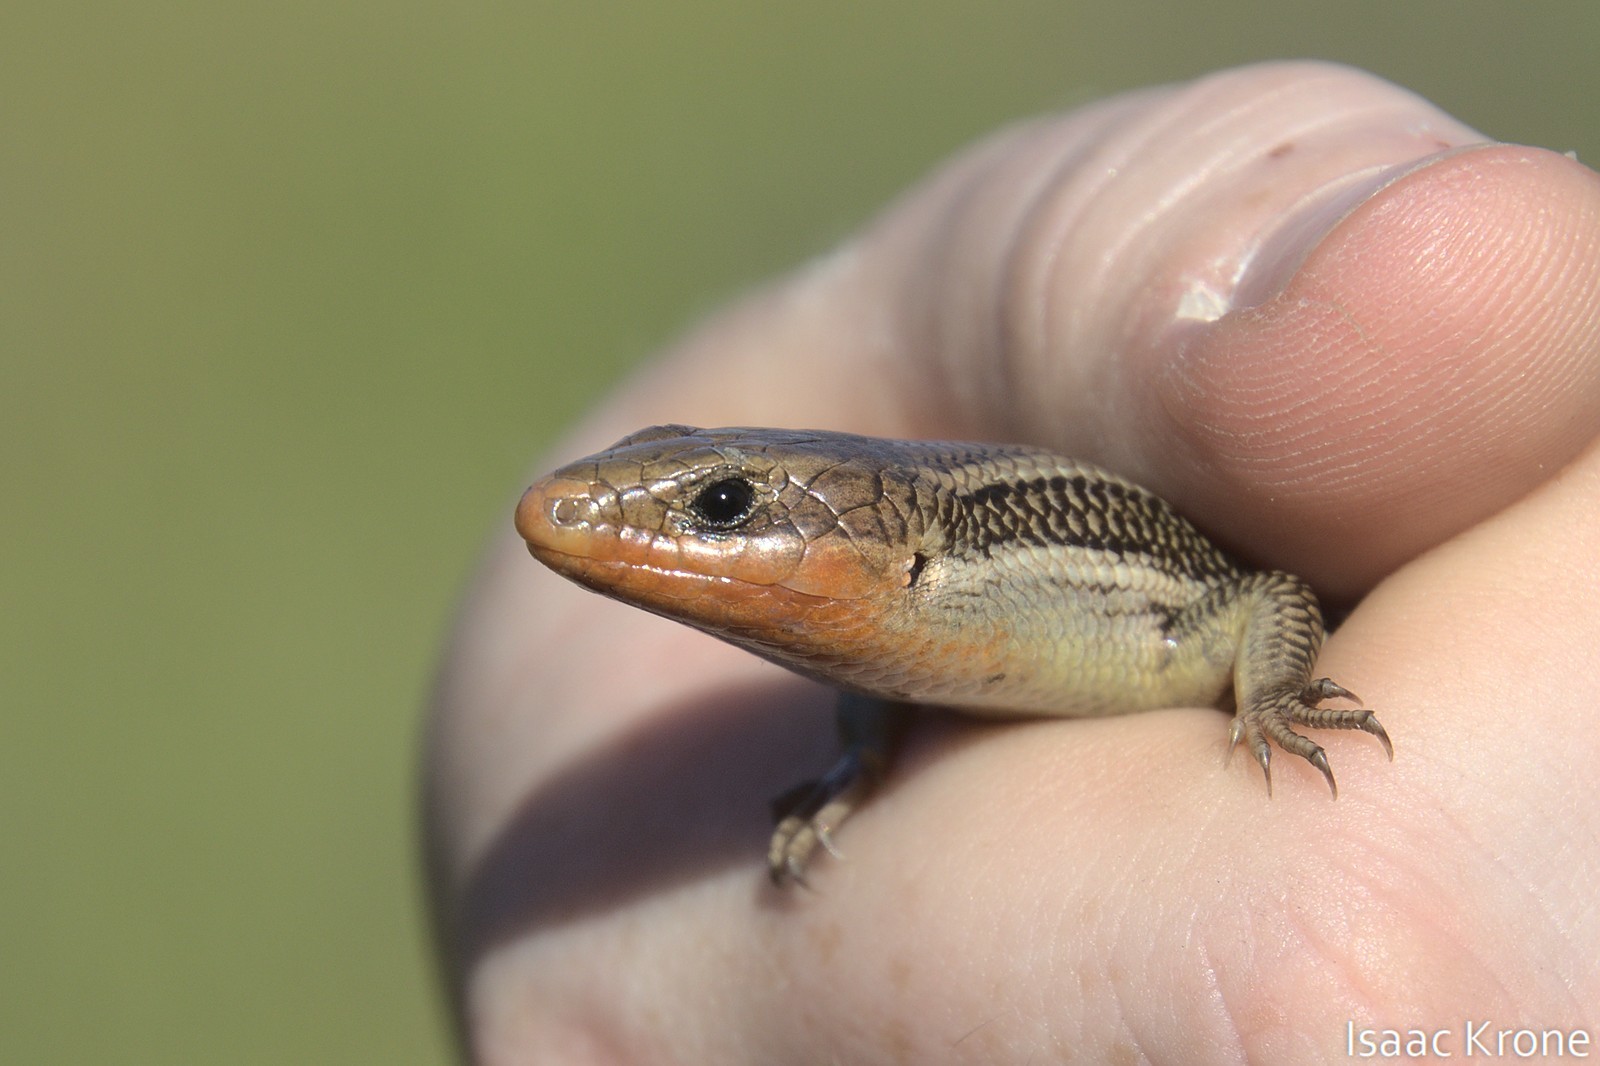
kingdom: Animalia
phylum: Chordata
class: Squamata
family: Scincidae
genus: Plestiodon
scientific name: Plestiodon skiltonianus
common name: Coronado island skink [interparietalis]
